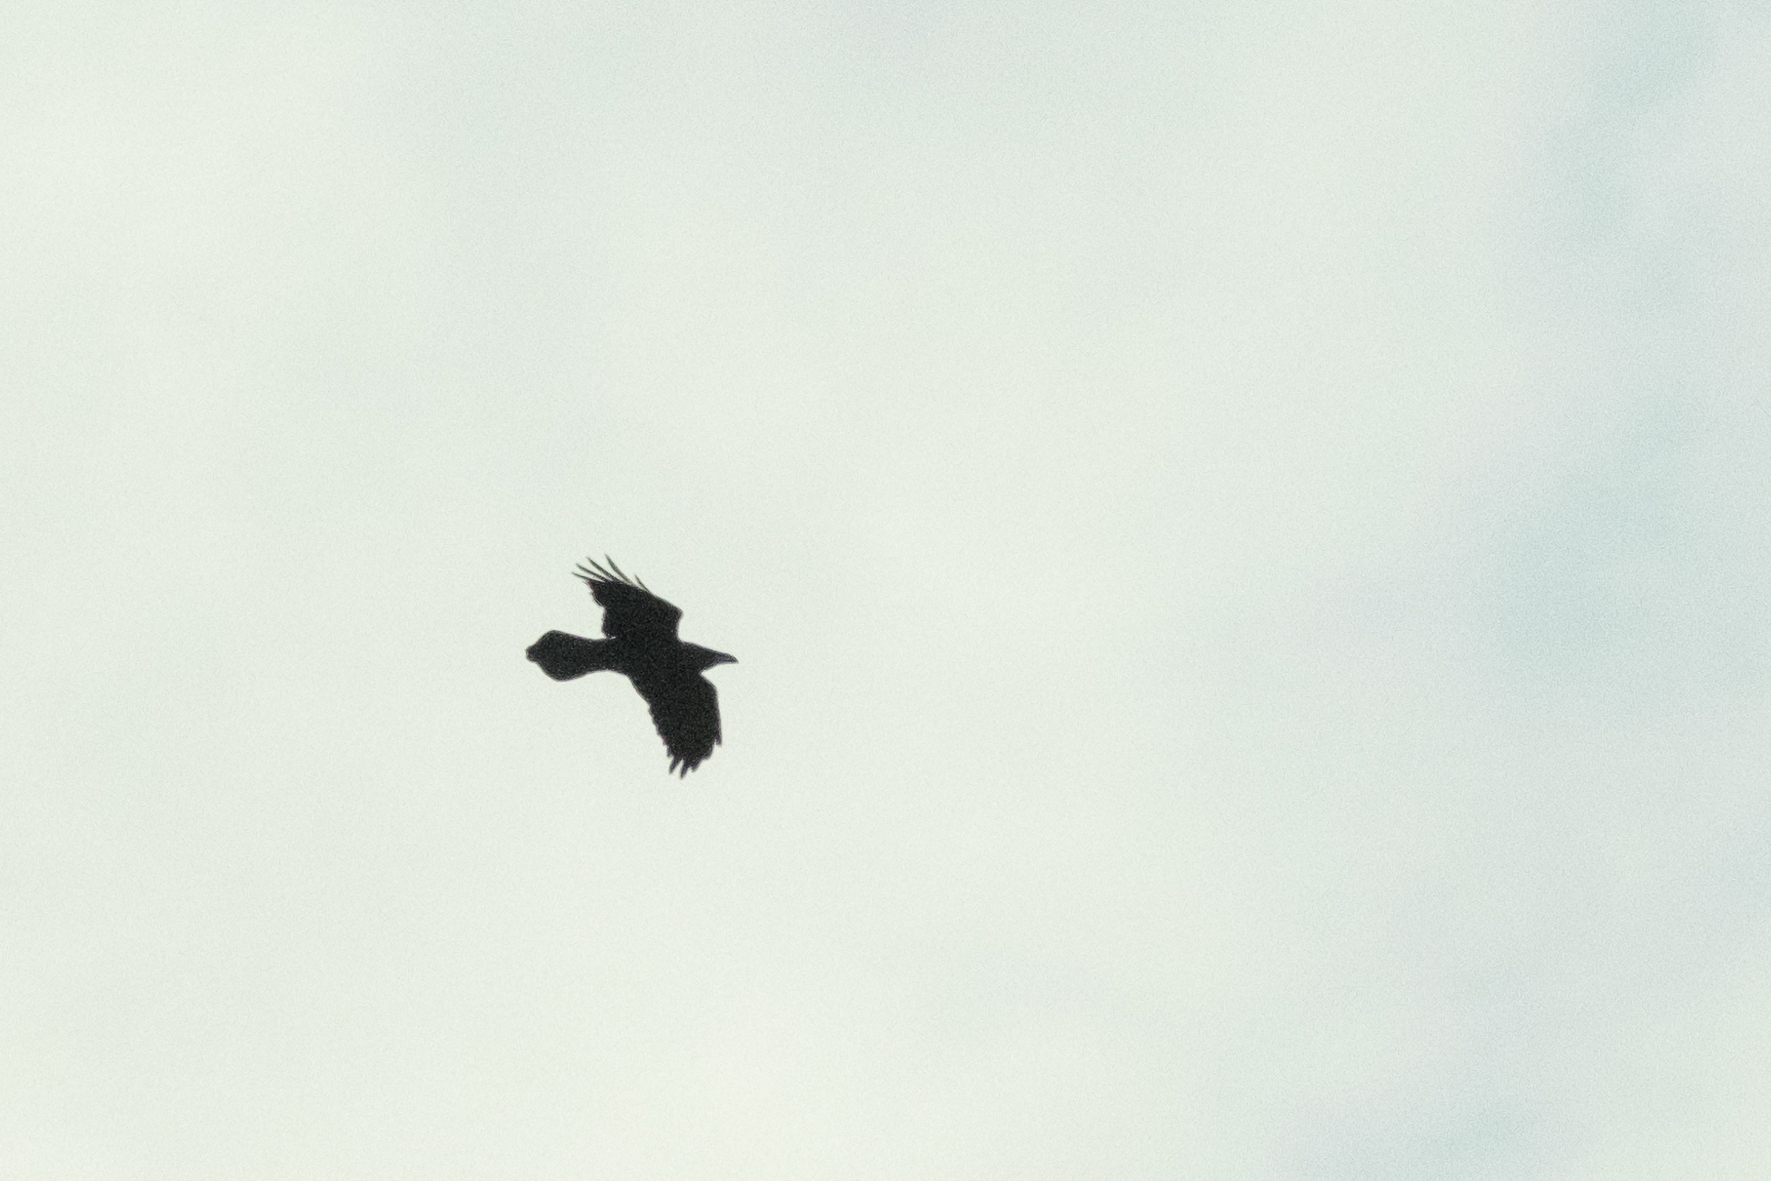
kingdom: Animalia
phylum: Chordata
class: Aves
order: Passeriformes
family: Corvidae
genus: Corvus
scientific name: Corvus corax
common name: Common raven
